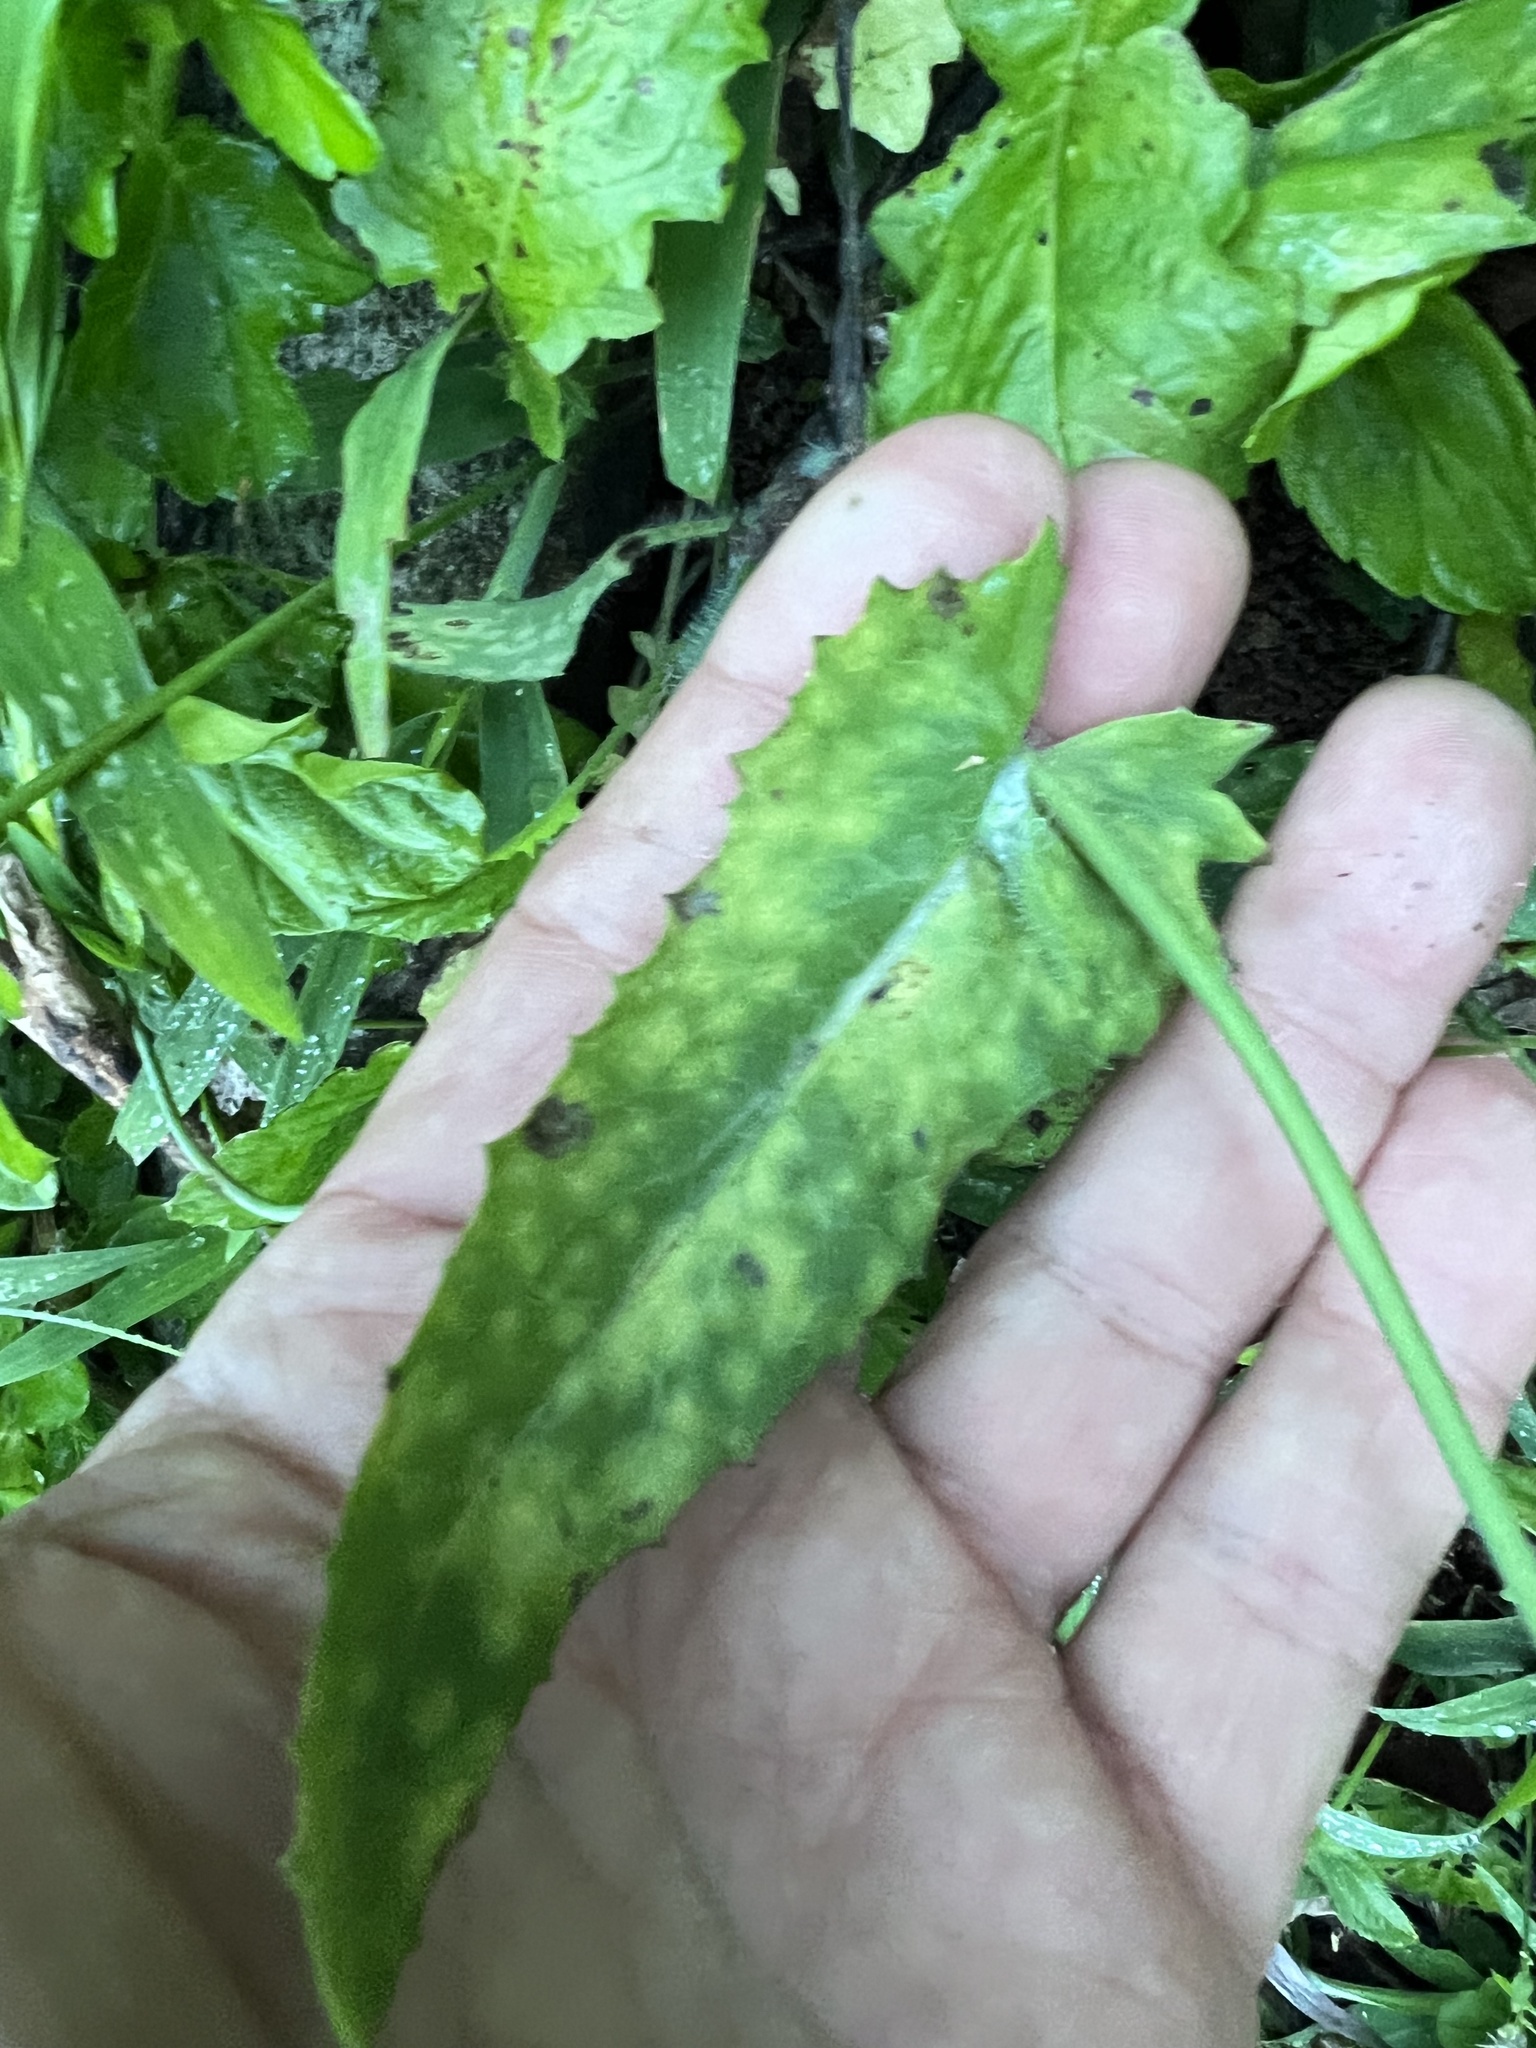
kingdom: Plantae
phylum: Tracheophyta
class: Magnoliopsida
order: Solanales
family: Convolvulaceae
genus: Ipomoea
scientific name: Ipomoea batatas
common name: Sweet-potato
